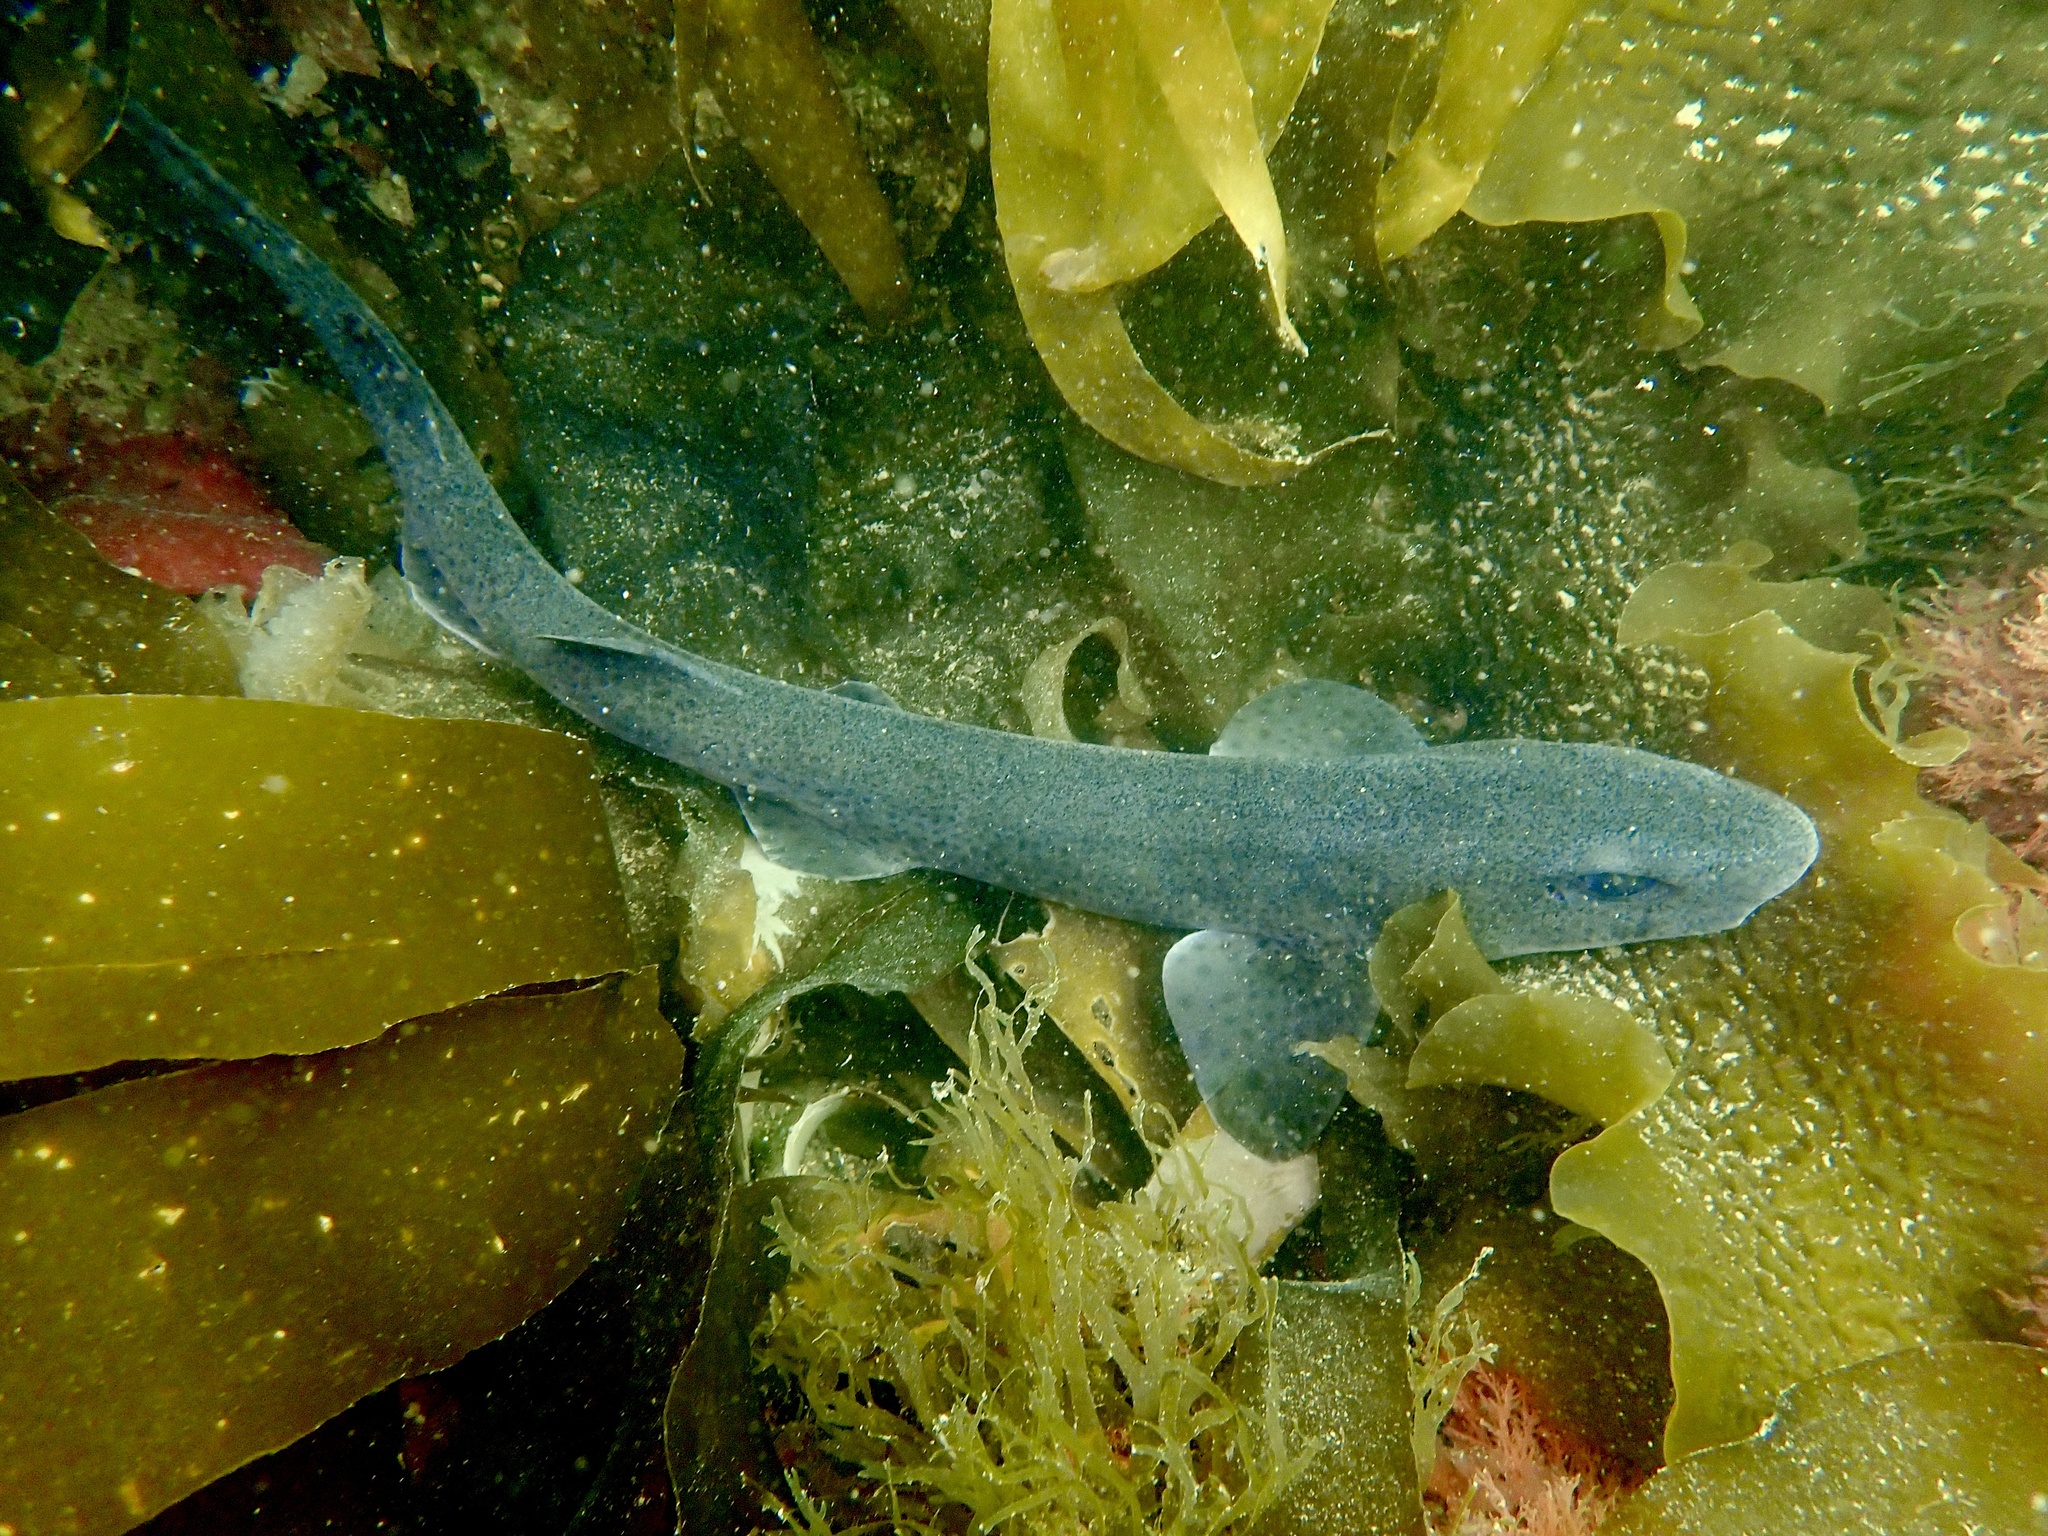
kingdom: Animalia
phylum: Chordata
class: Elasmobranchii
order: Carcharhiniformes
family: Scyliorhinidae
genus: Scyliorhinus
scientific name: Scyliorhinus canicula
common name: Lesser spotted dogfish
